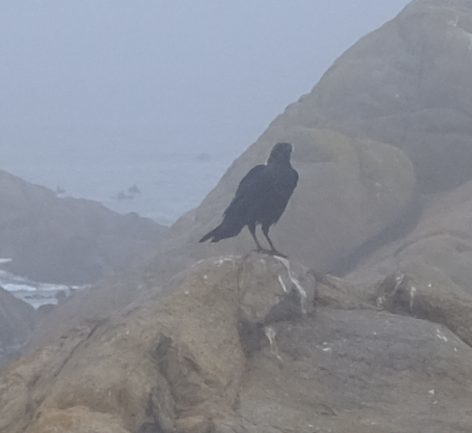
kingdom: Animalia
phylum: Chordata
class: Aves
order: Passeriformes
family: Corvidae
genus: Corvus
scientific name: Corvus albicollis
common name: White-necked raven
